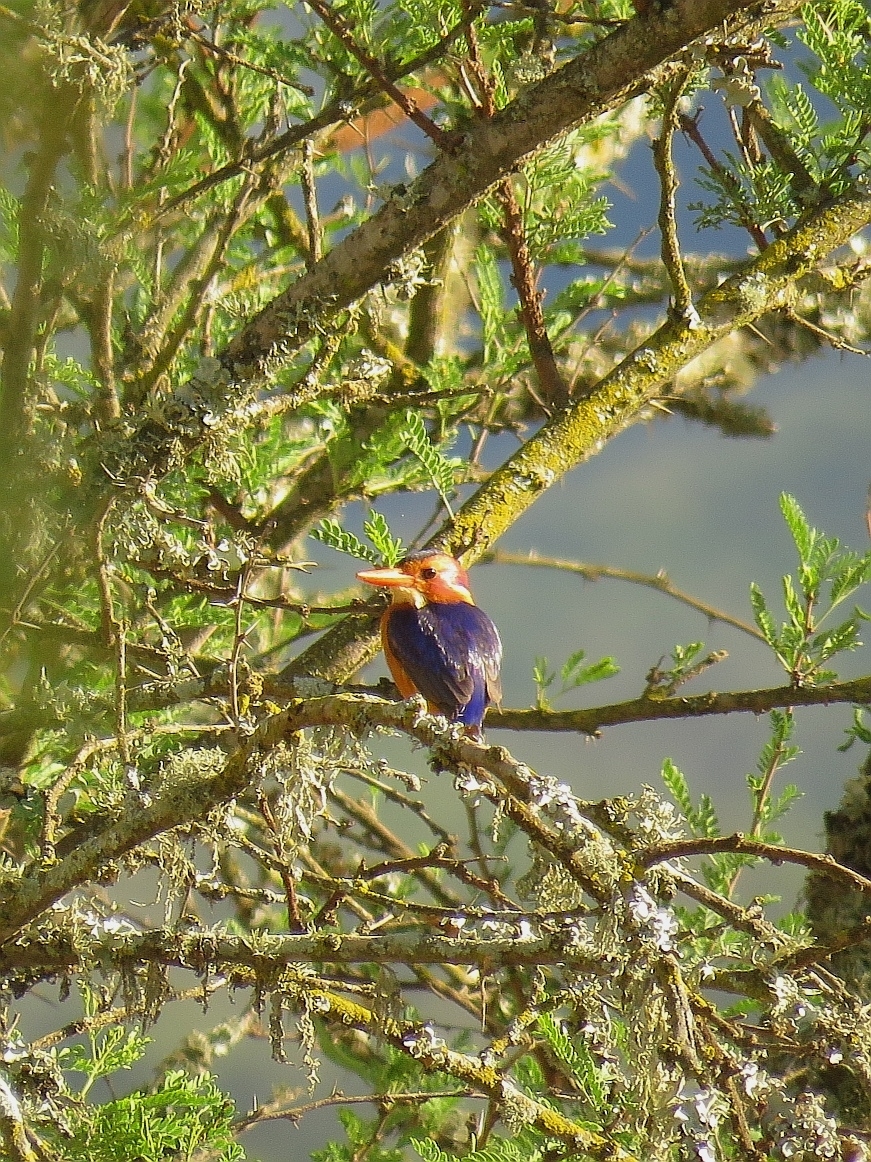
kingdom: Animalia
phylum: Chordata
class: Aves
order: Coraciiformes
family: Alcedinidae
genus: Ispidina
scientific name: Ispidina picta
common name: African pygmy-kingfisher
